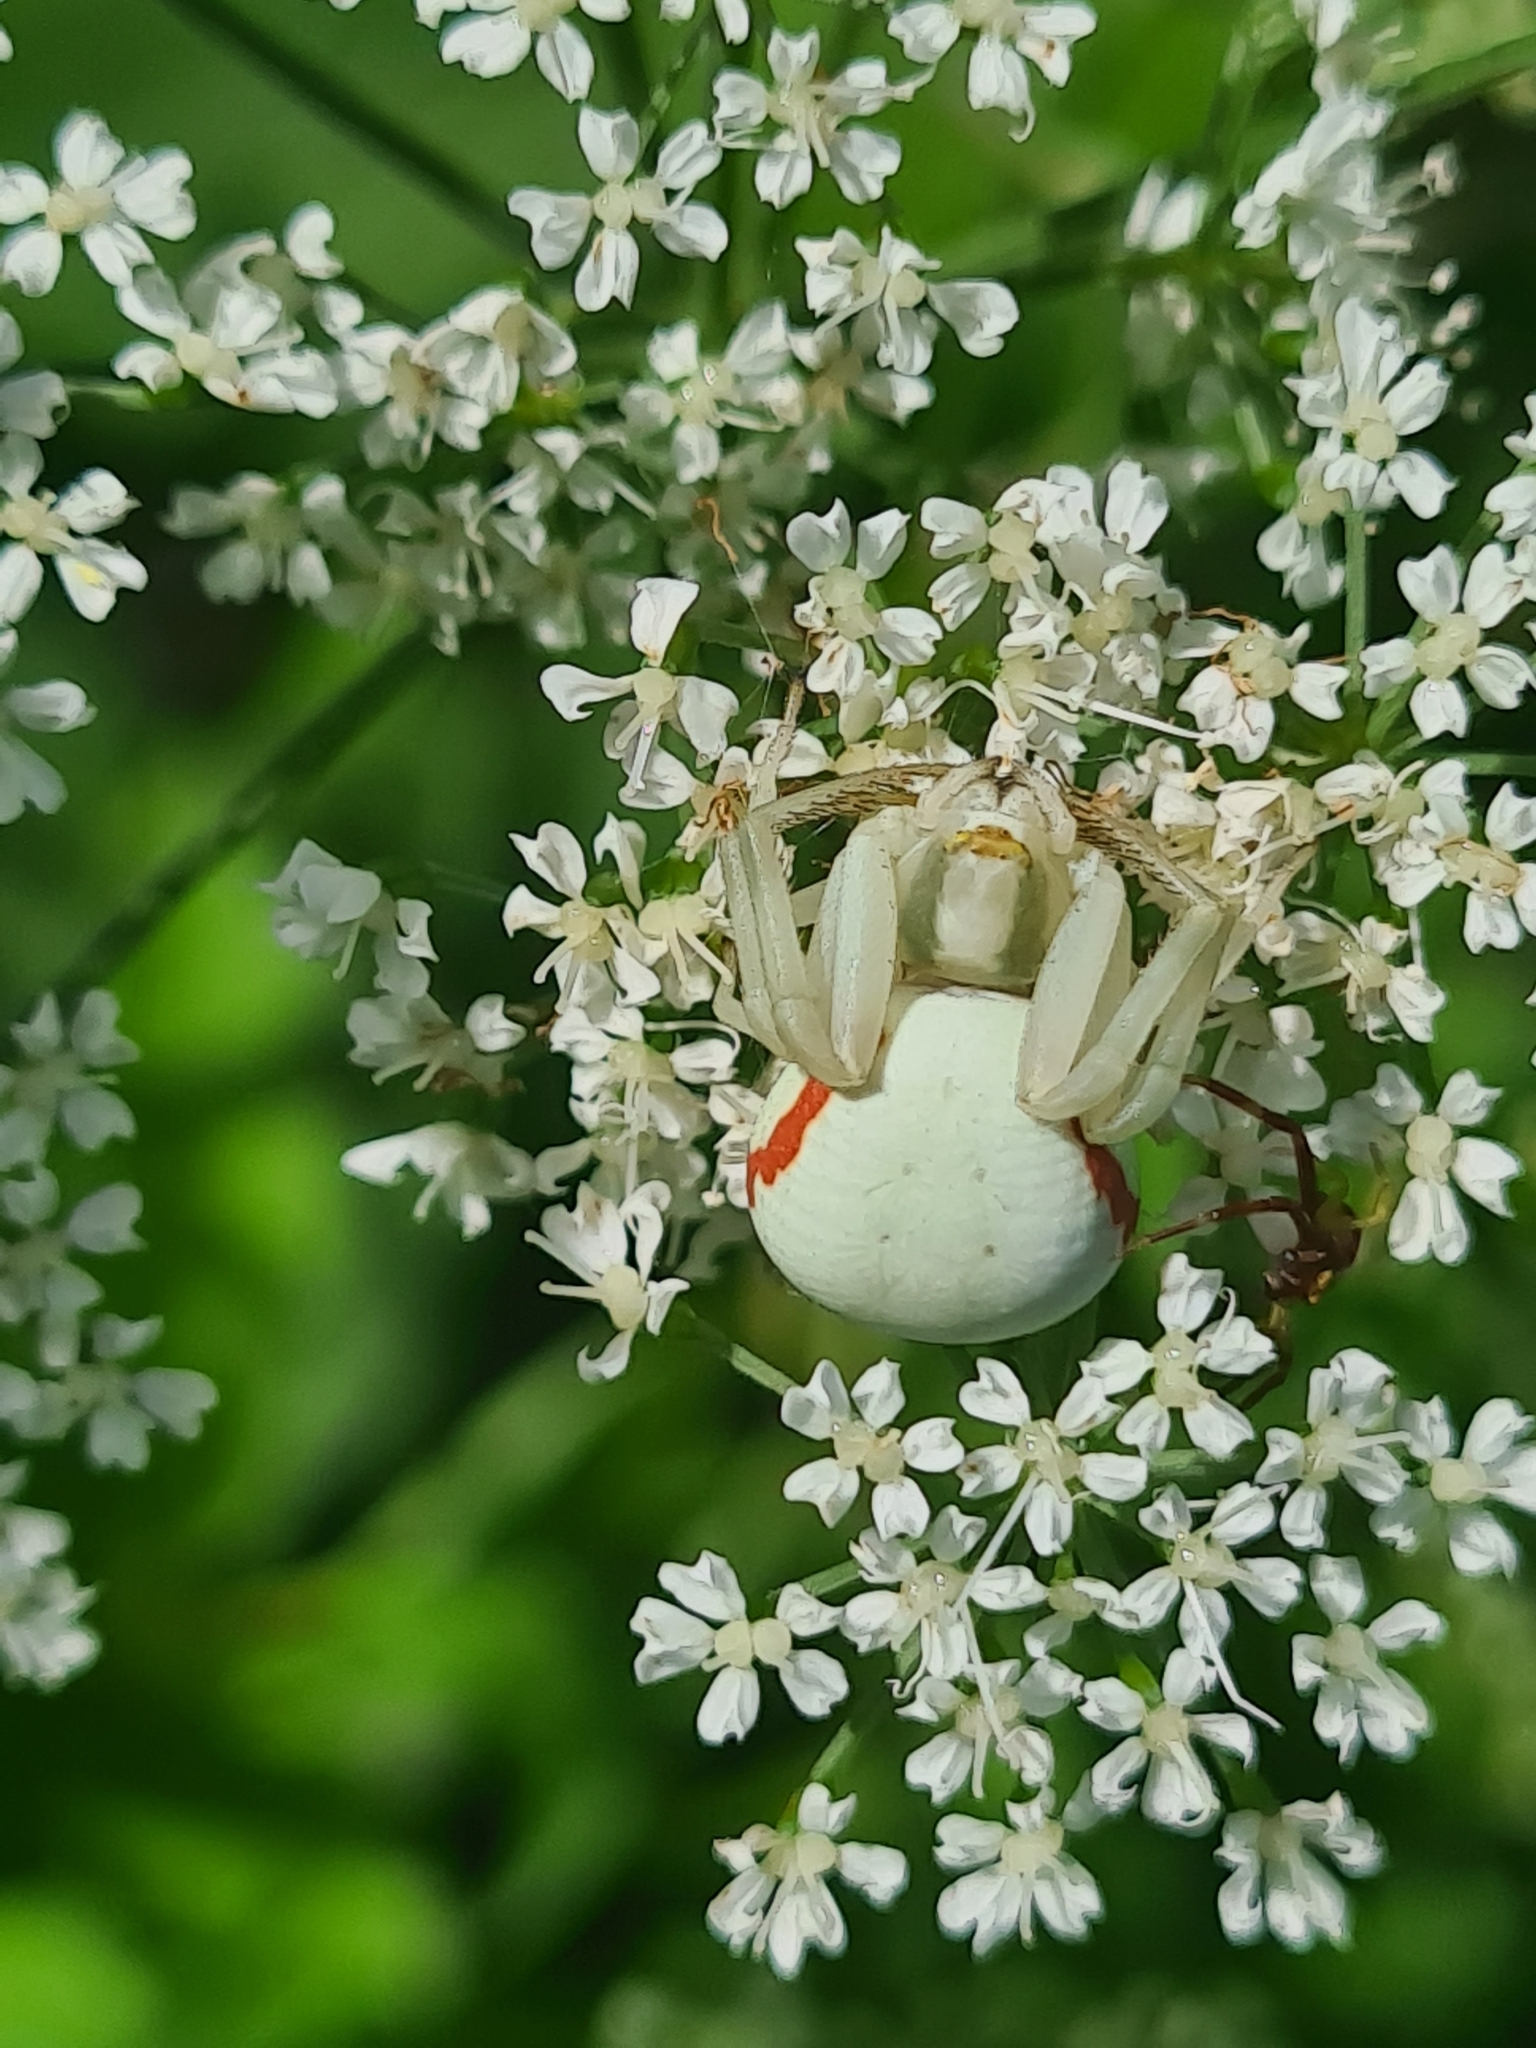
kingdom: Animalia
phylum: Arthropoda
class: Arachnida
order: Araneae
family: Thomisidae
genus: Misumena
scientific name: Misumena vatia
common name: Goldenrod crab spider
